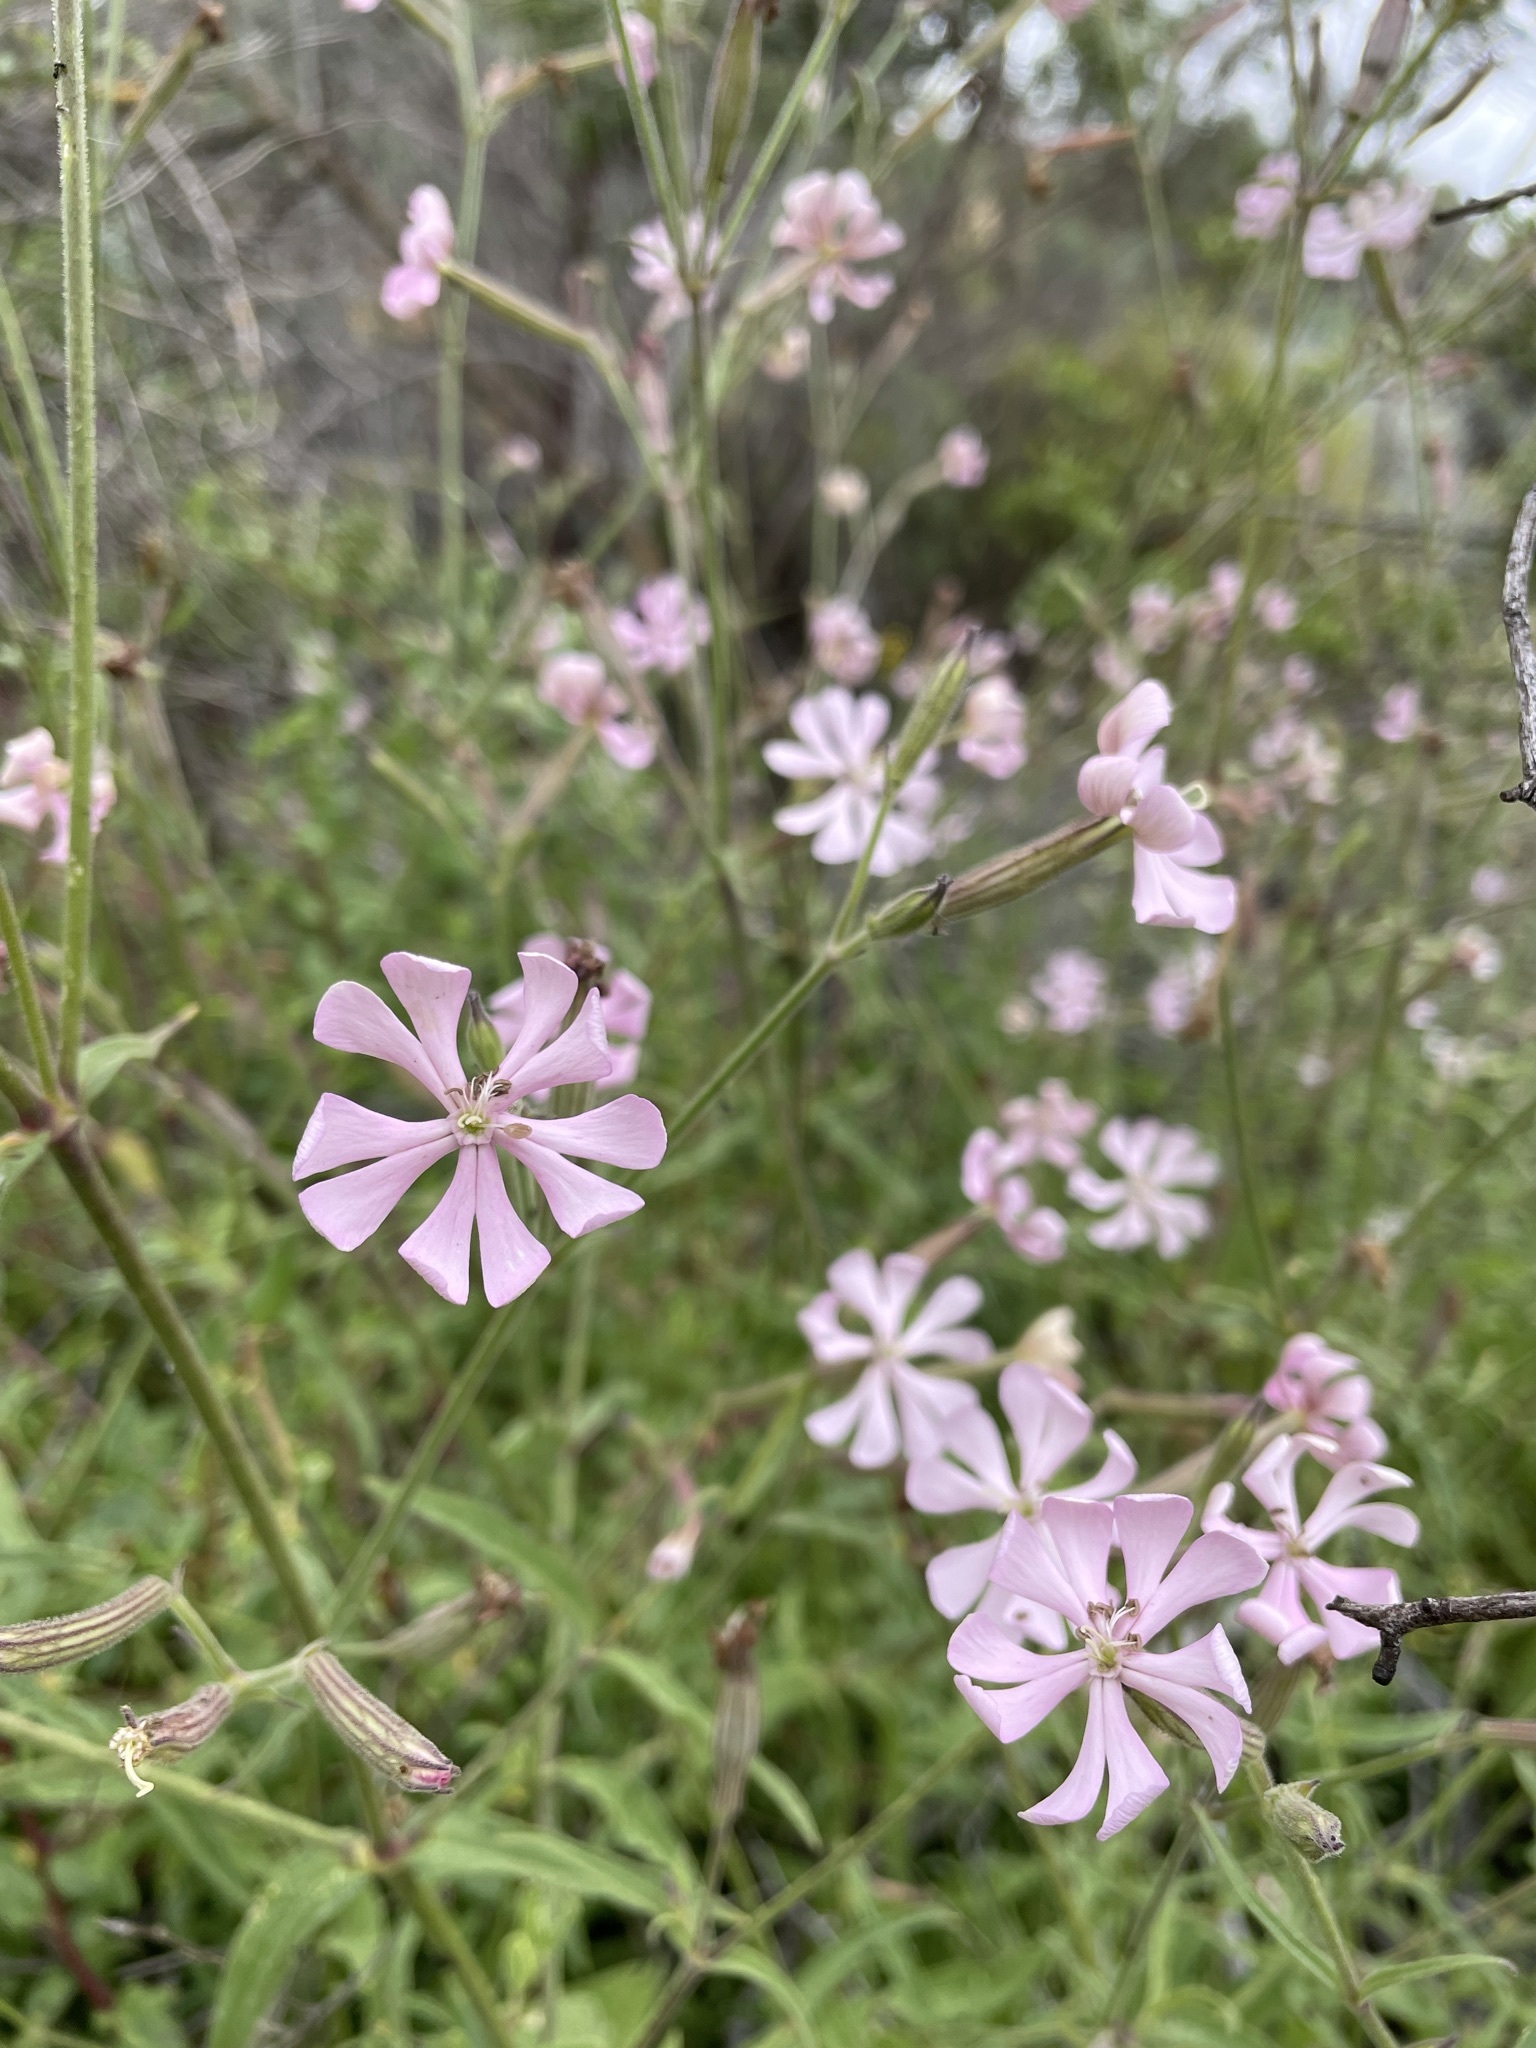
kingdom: Plantae
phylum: Tracheophyta
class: Magnoliopsida
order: Caryophyllales
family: Caryophyllaceae
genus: Silene
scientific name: Silene undulata
